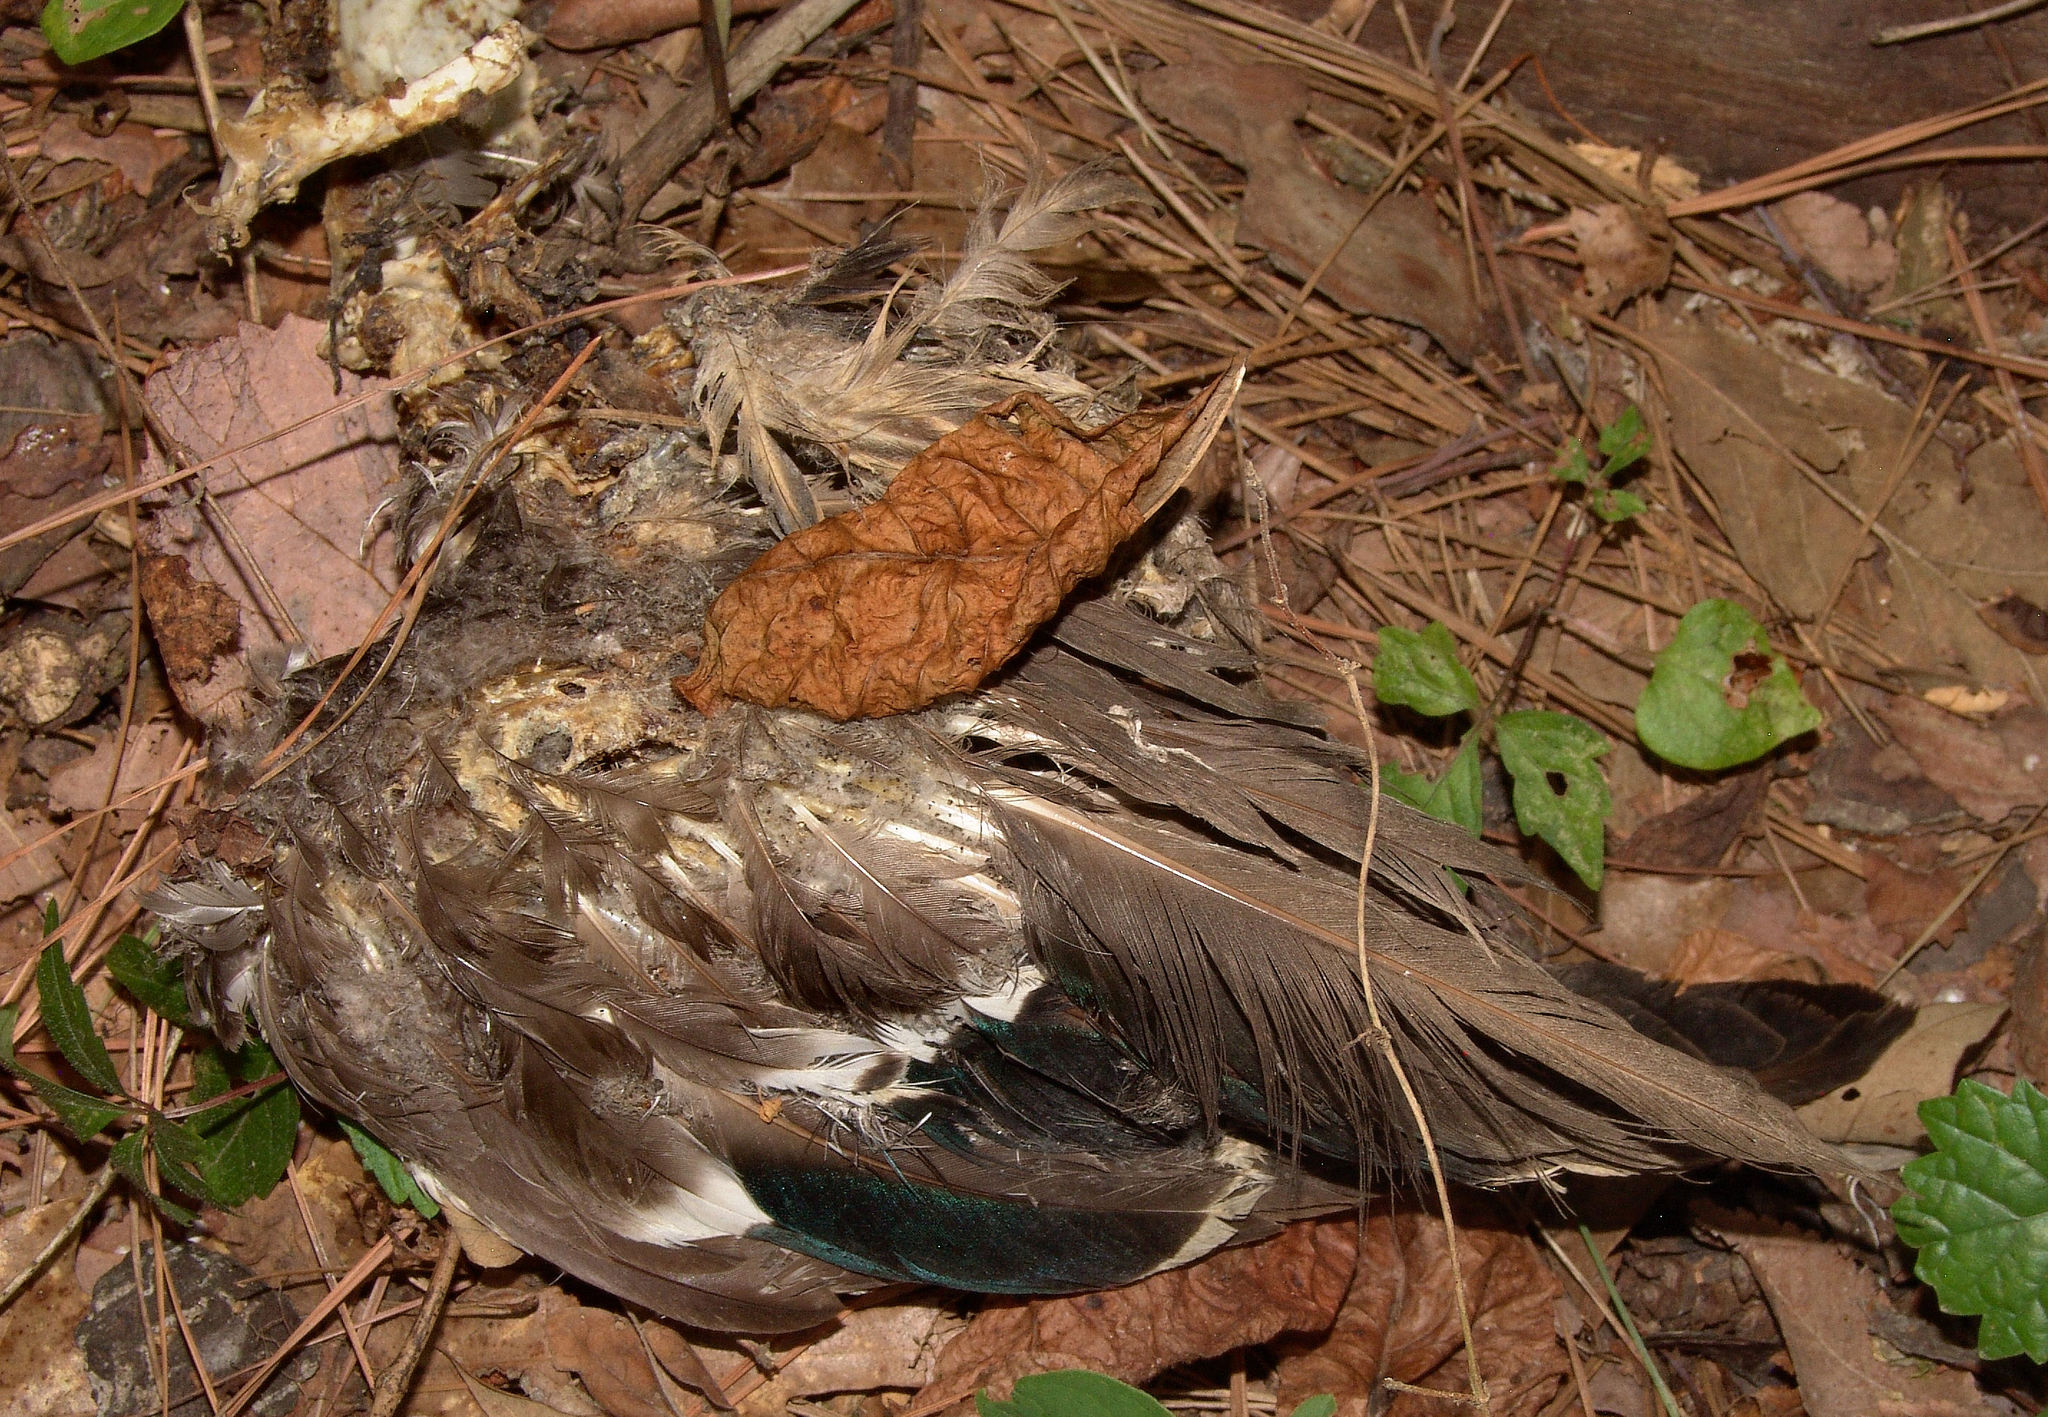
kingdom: Animalia
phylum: Chordata
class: Aves
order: Anseriformes
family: Anatidae
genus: Anas
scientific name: Anas platyrhynchos
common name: Mallard
